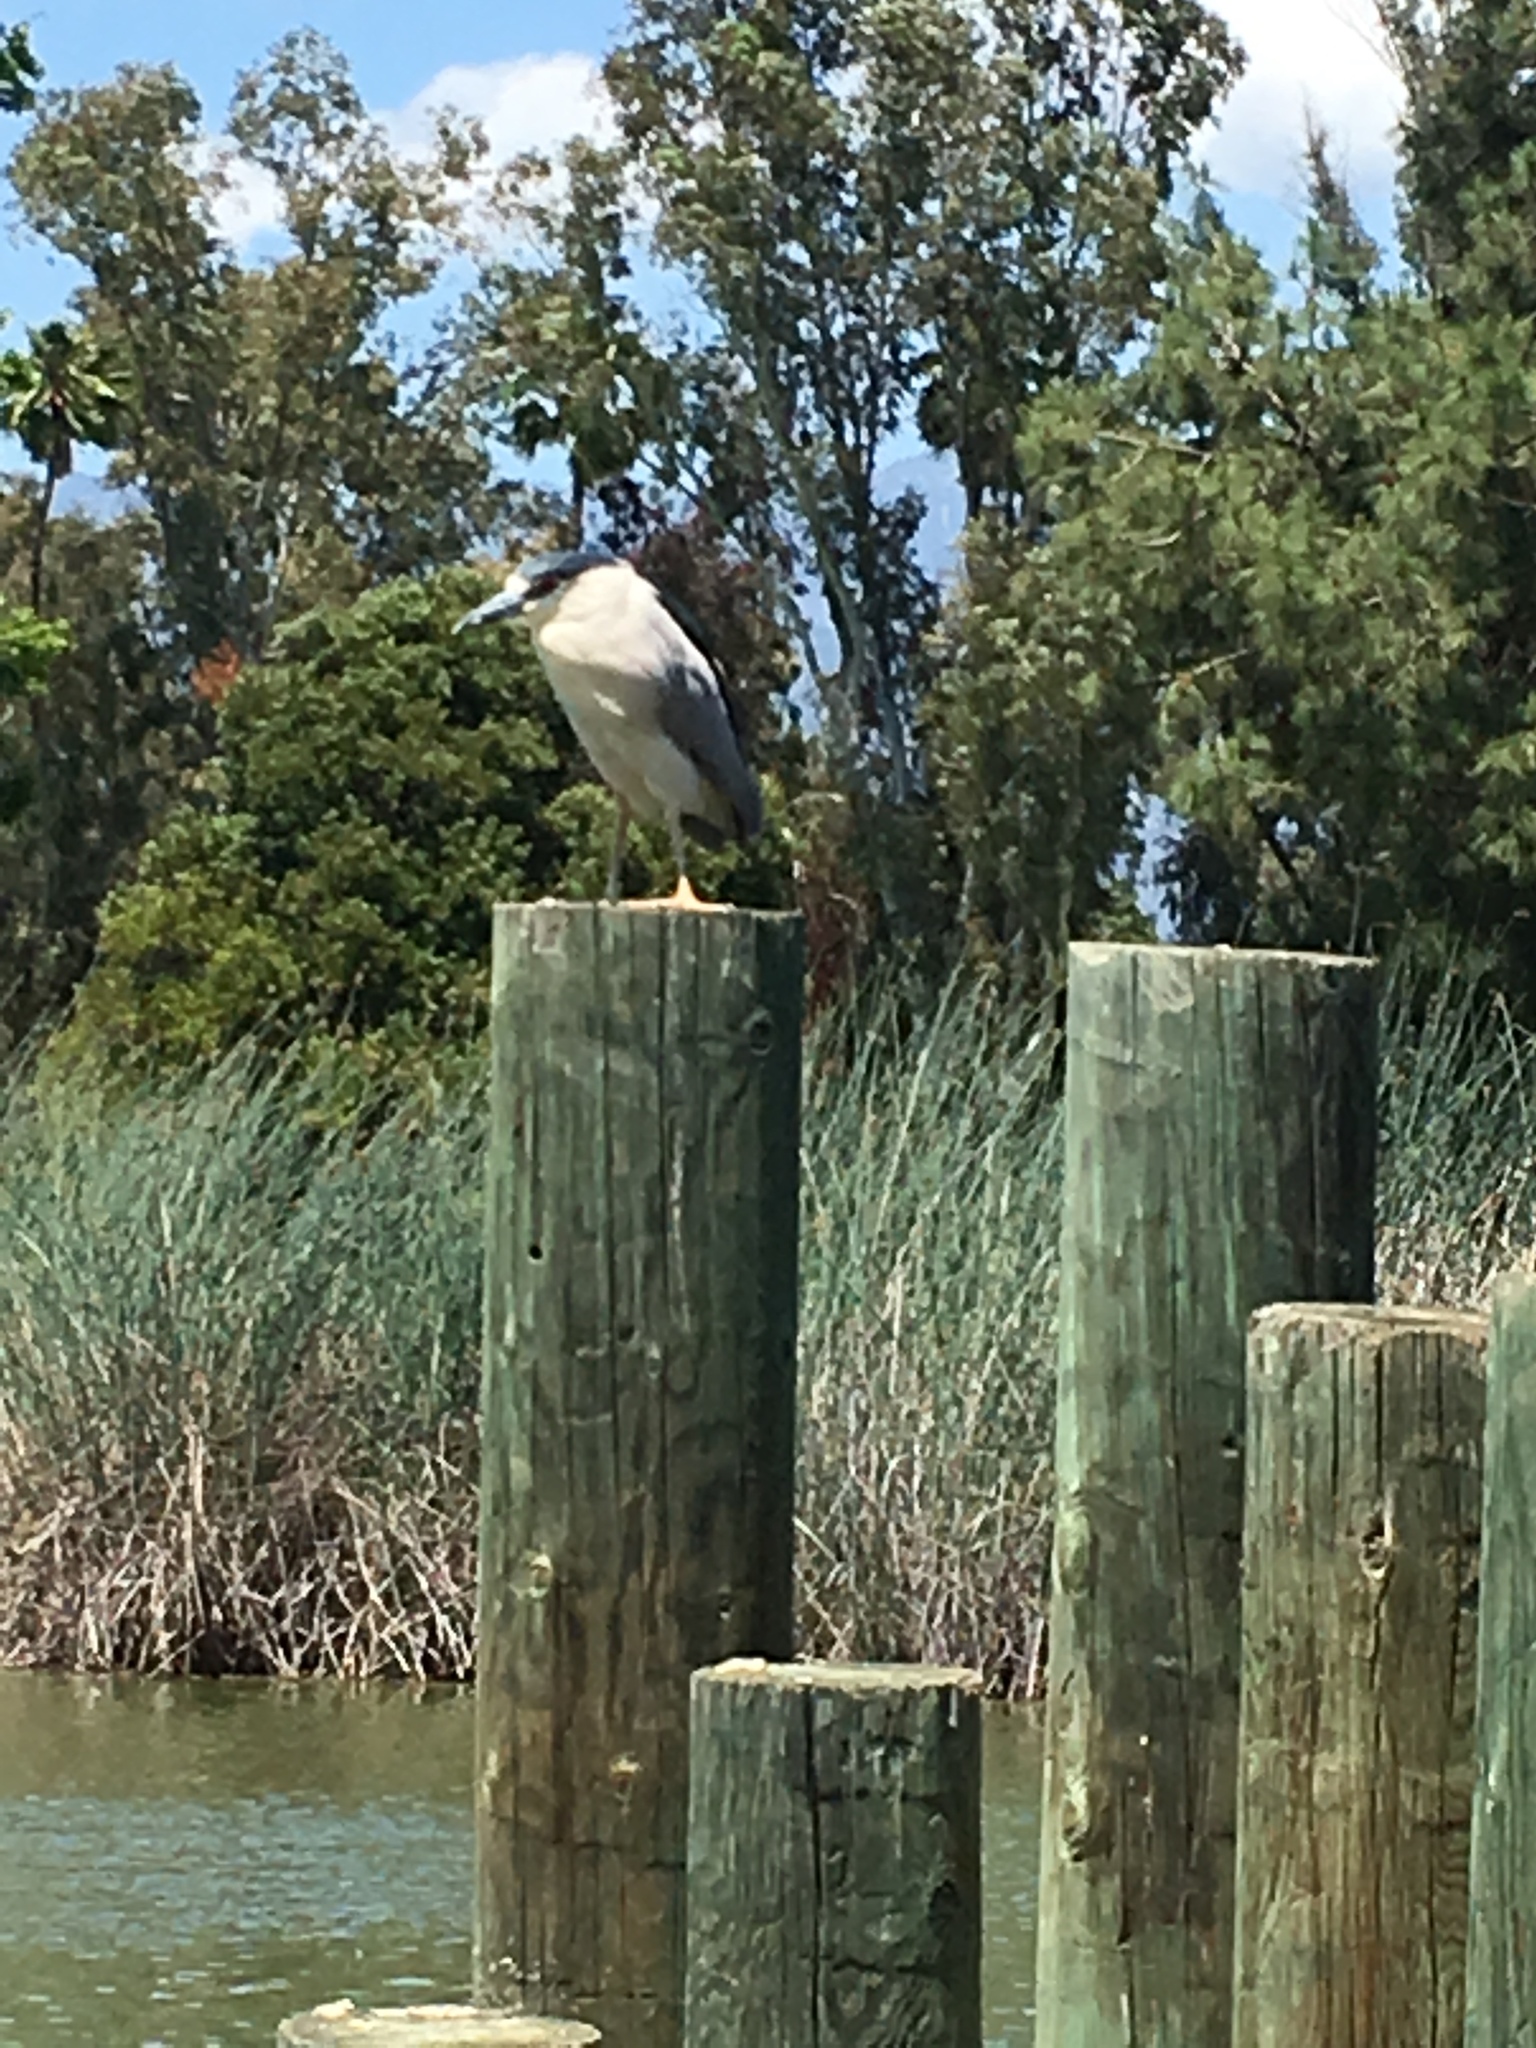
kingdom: Animalia
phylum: Chordata
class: Aves
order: Pelecaniformes
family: Ardeidae
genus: Nycticorax
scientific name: Nycticorax nycticorax
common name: Black-crowned night heron
